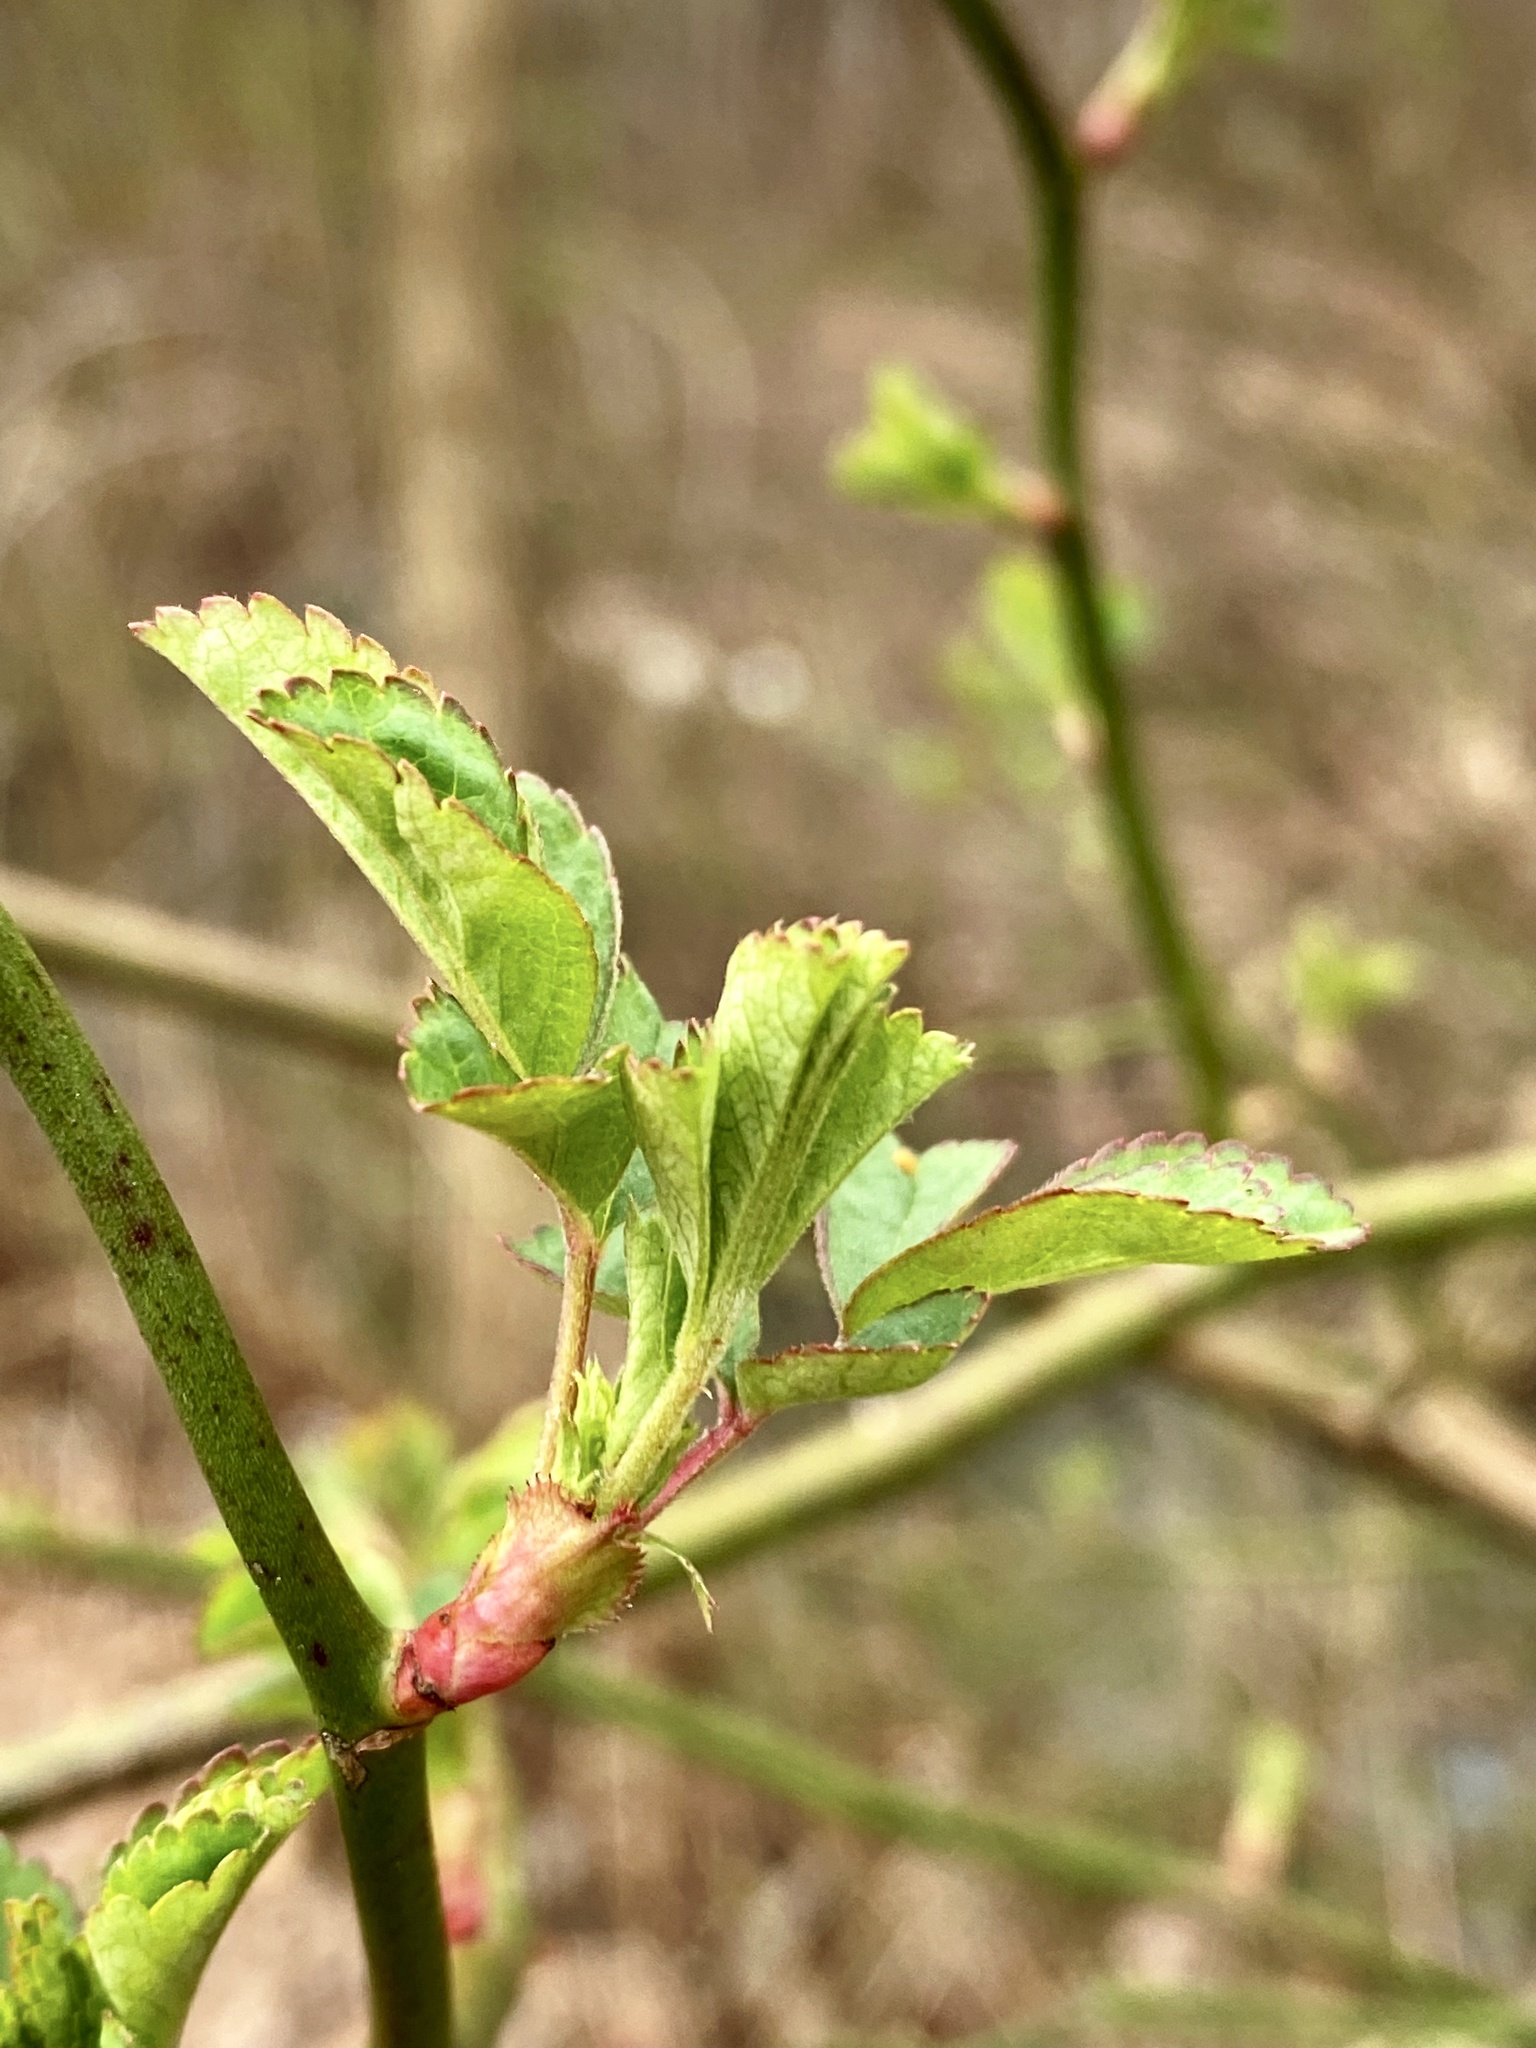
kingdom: Plantae
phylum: Tracheophyta
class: Magnoliopsida
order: Rosales
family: Rosaceae
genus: Rosa
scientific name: Rosa multiflora
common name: Multiflora rose
